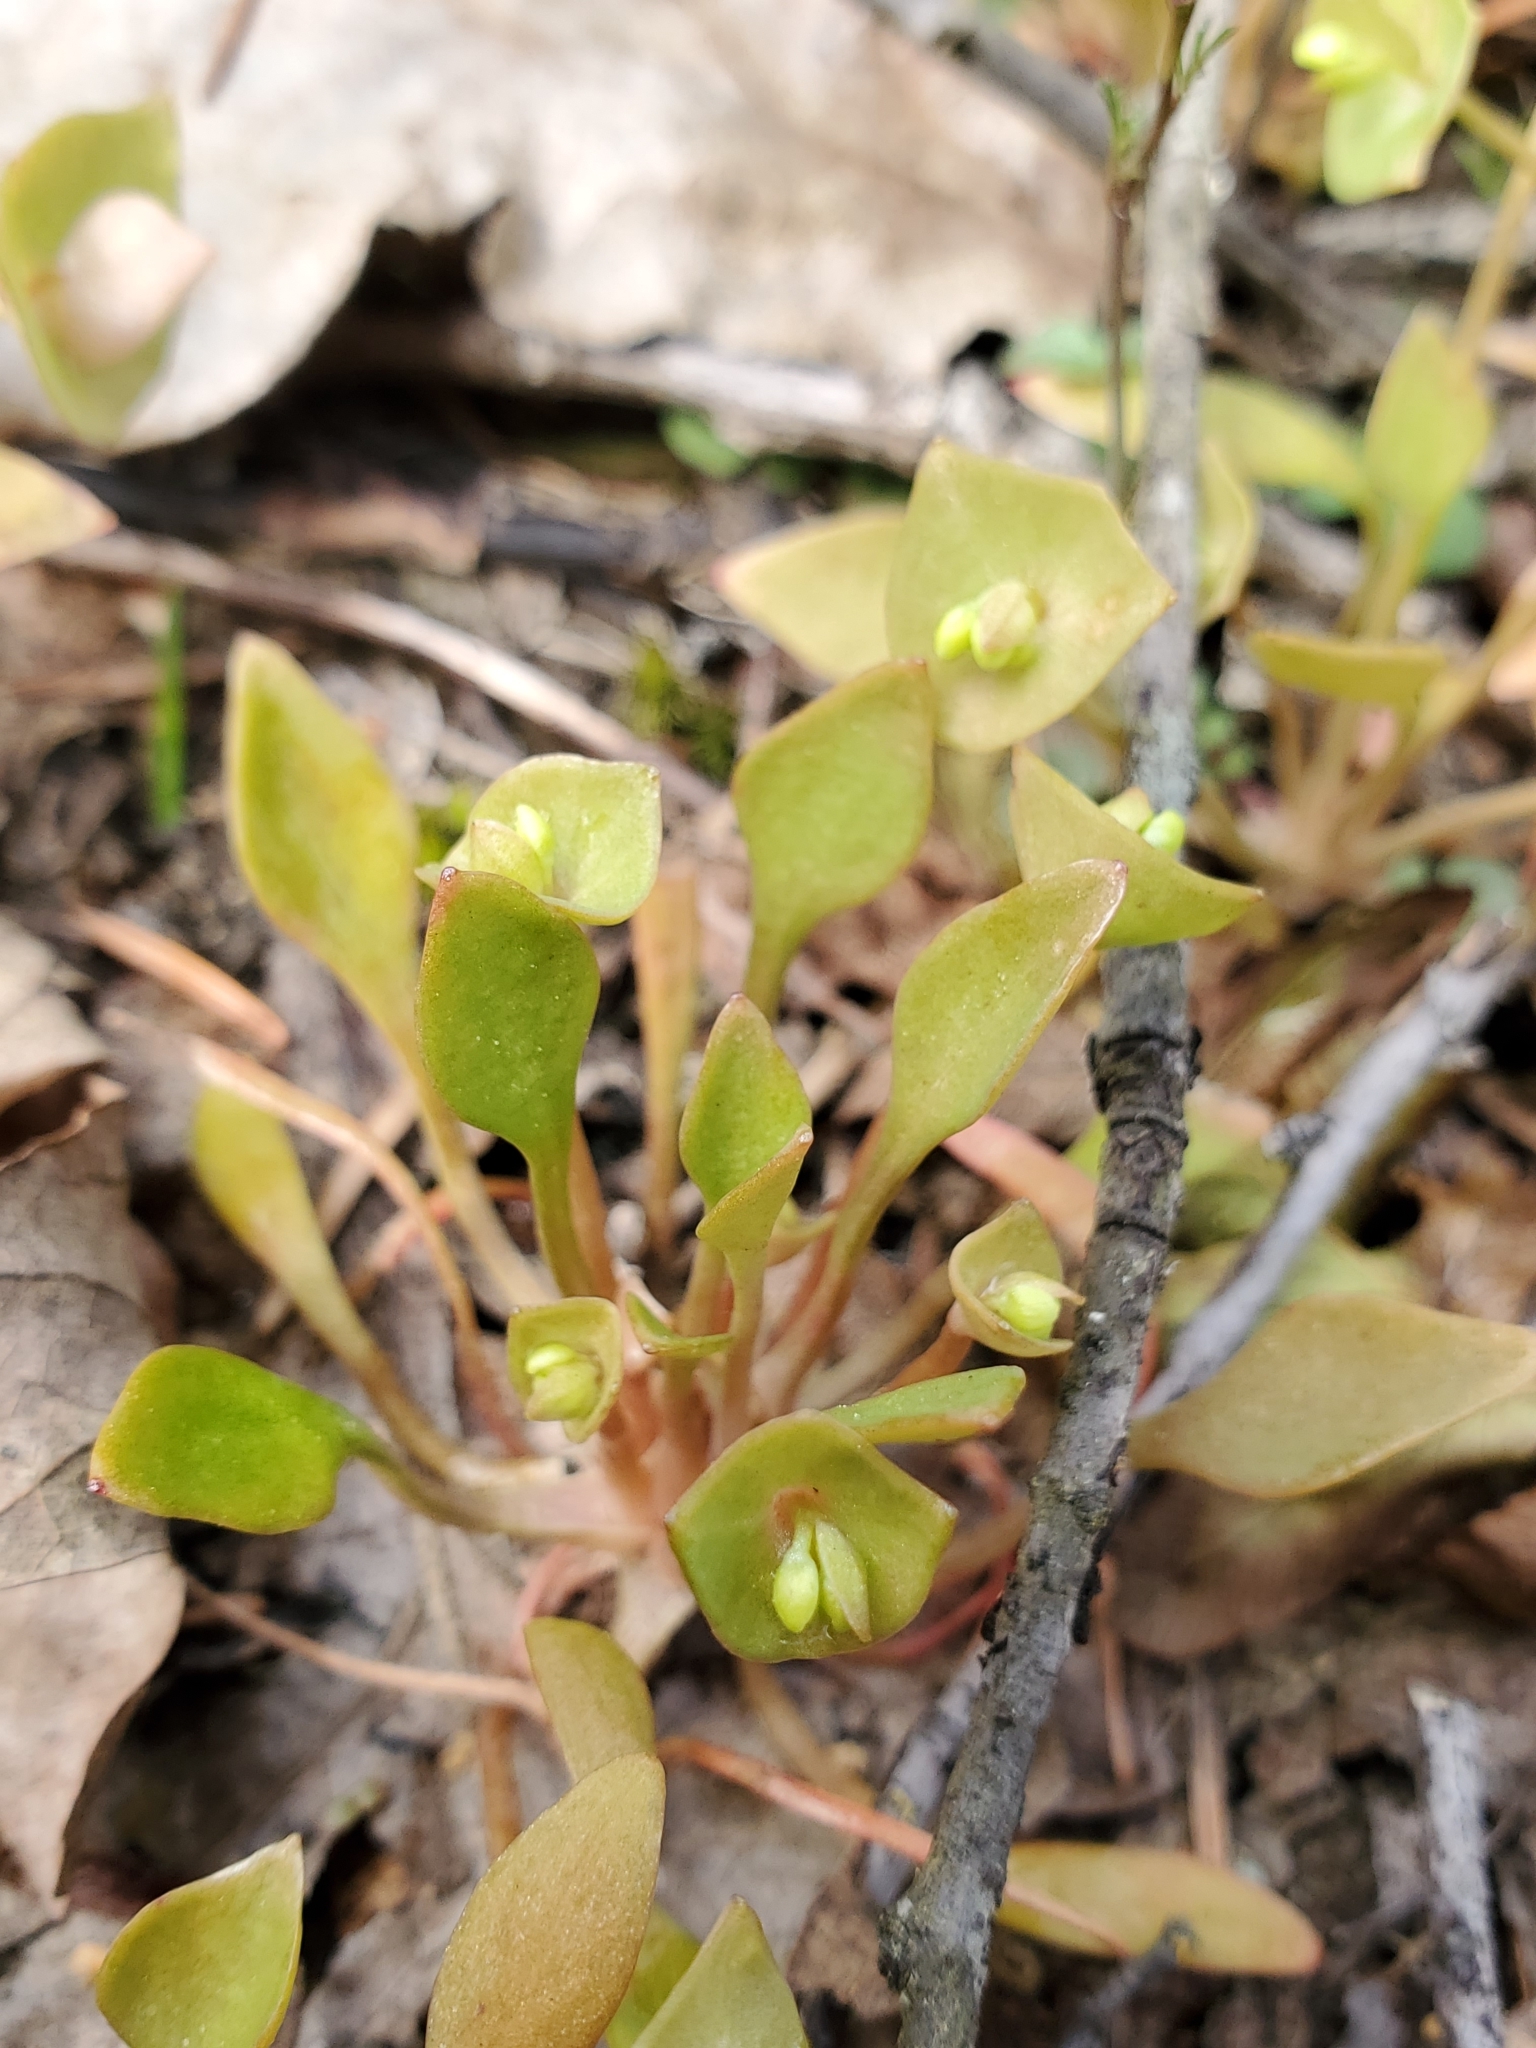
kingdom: Plantae
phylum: Tracheophyta
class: Magnoliopsida
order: Caryophyllales
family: Montiaceae
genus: Claytonia
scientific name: Claytonia rubra
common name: Erubescent miner's-lettuce
